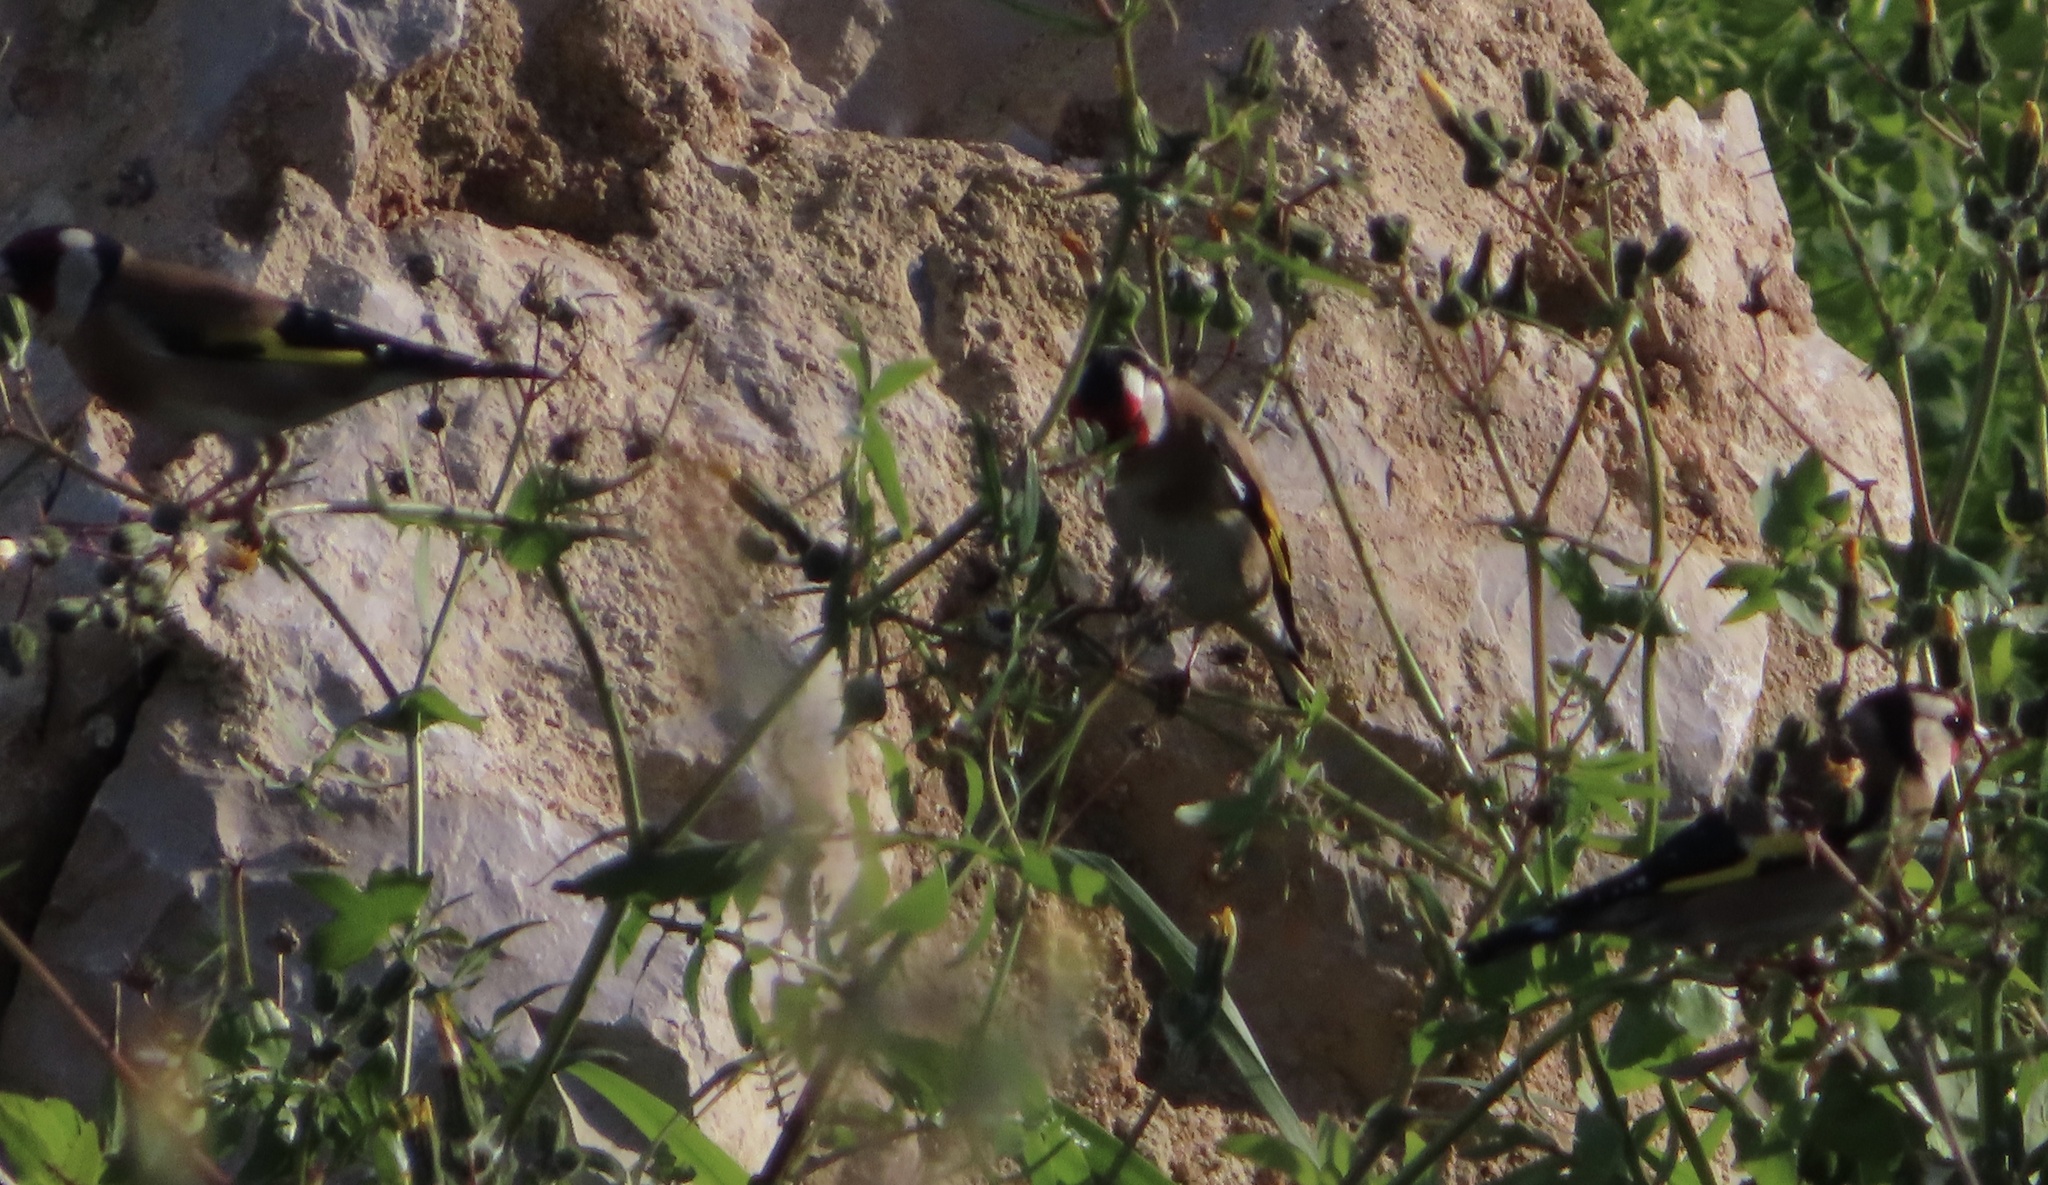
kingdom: Animalia
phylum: Chordata
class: Aves
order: Passeriformes
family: Fringillidae
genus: Carduelis
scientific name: Carduelis carduelis
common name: European goldfinch
